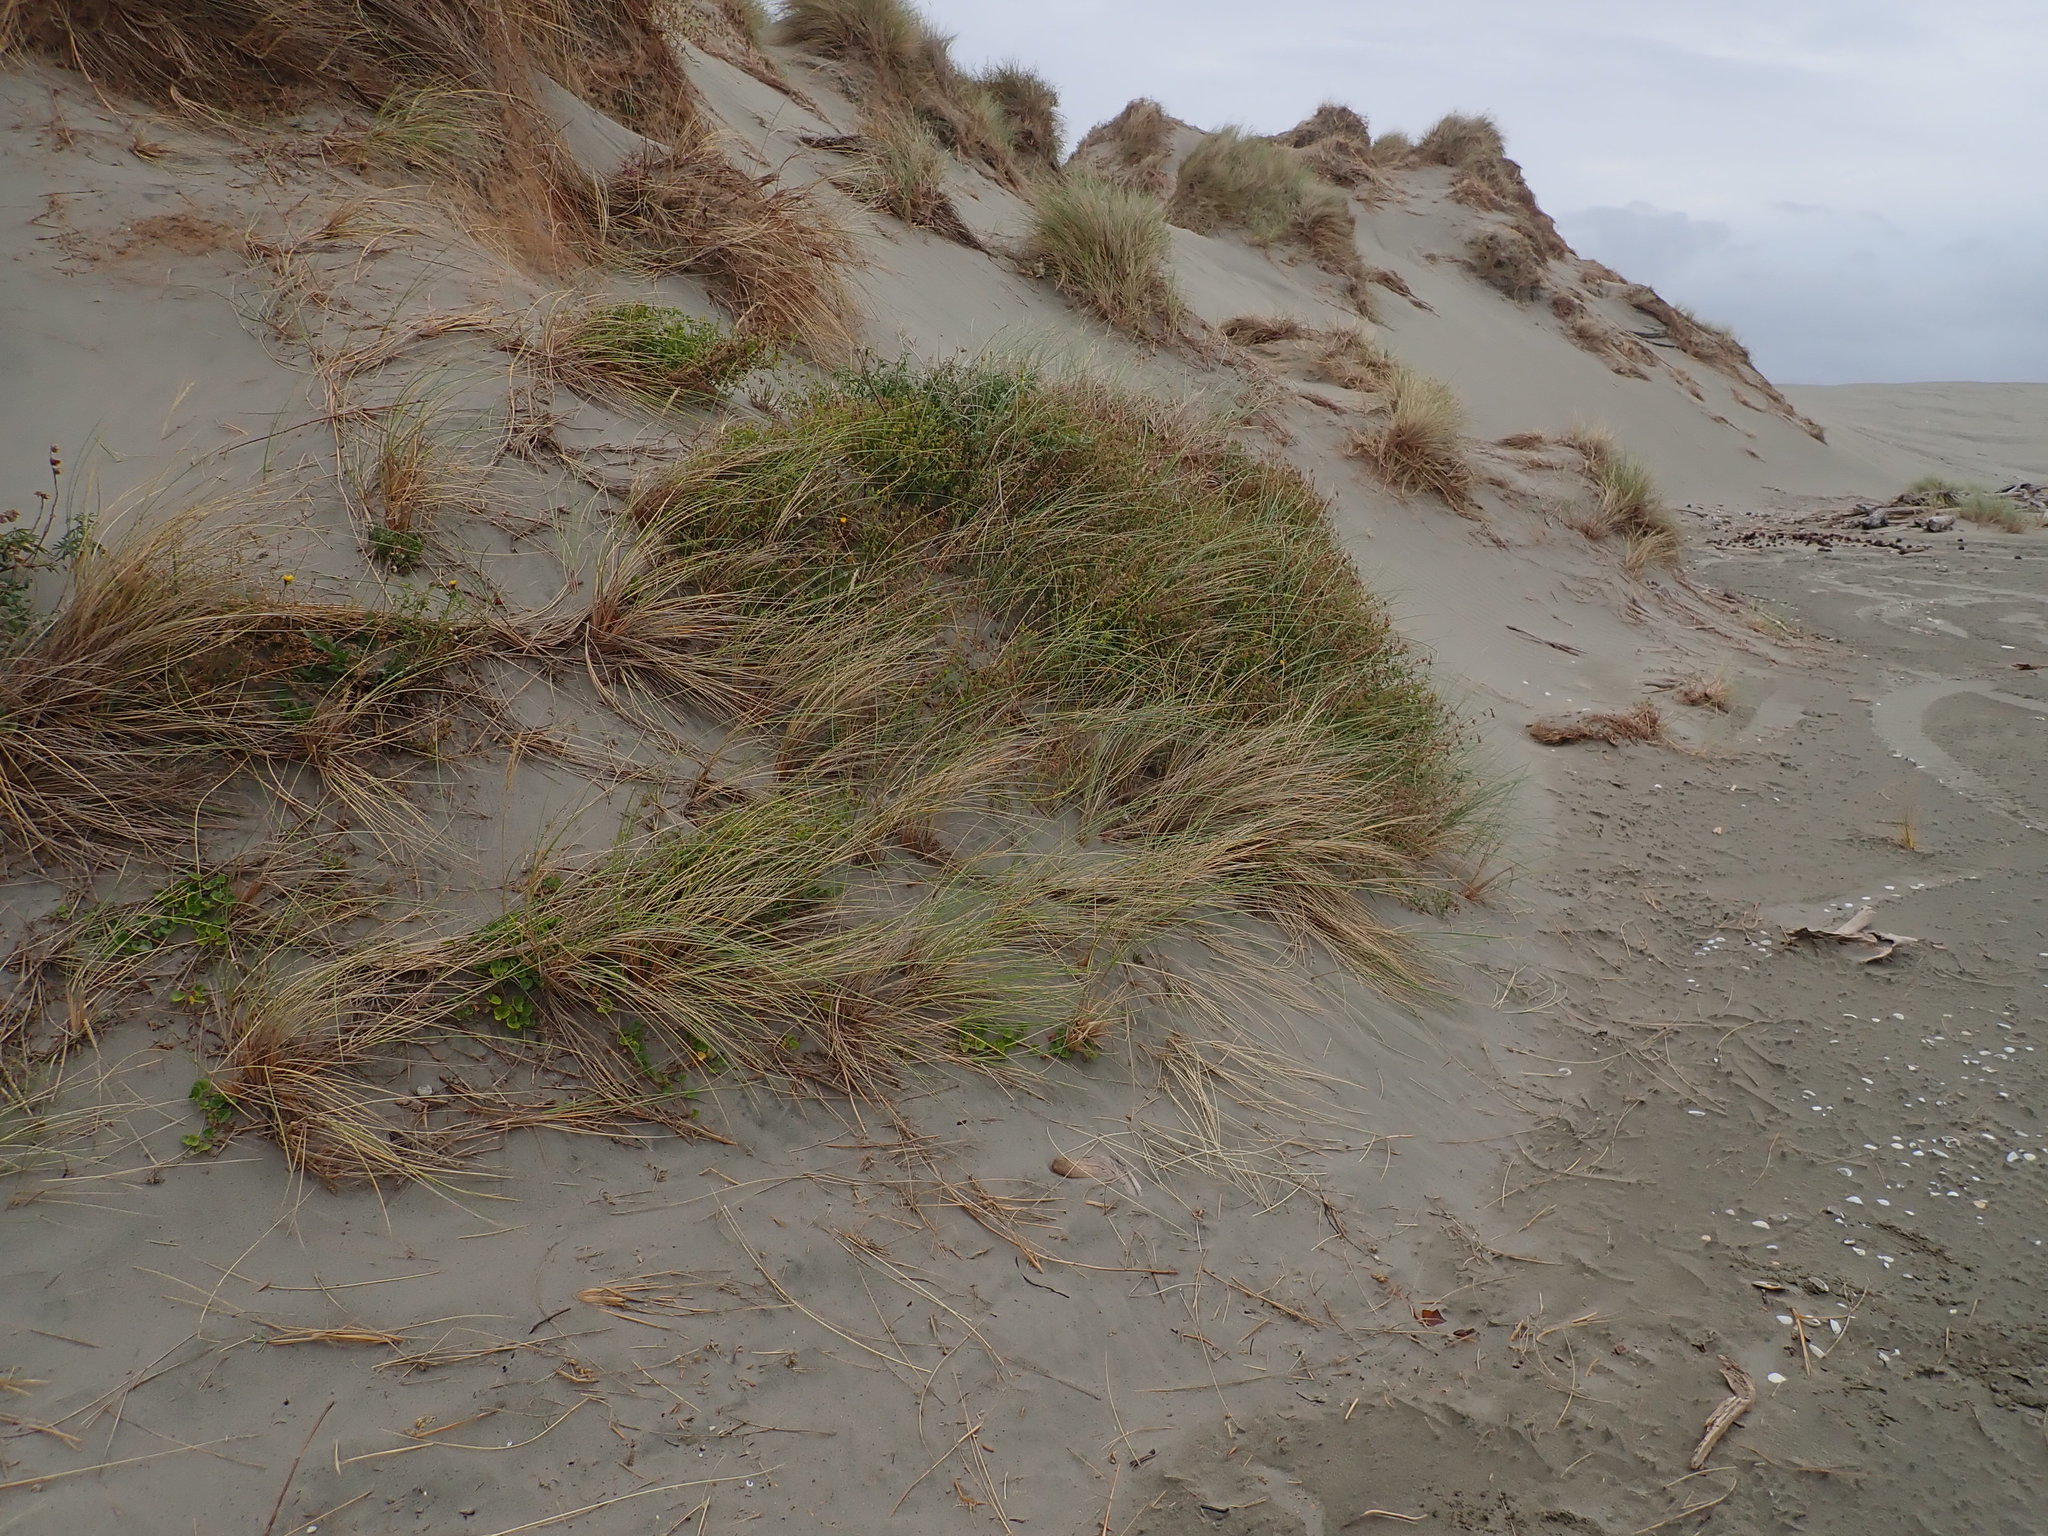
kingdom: Plantae
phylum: Tracheophyta
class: Magnoliopsida
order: Fabales
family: Fabaceae
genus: Melilotus
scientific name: Melilotus indicus
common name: Small melilot
